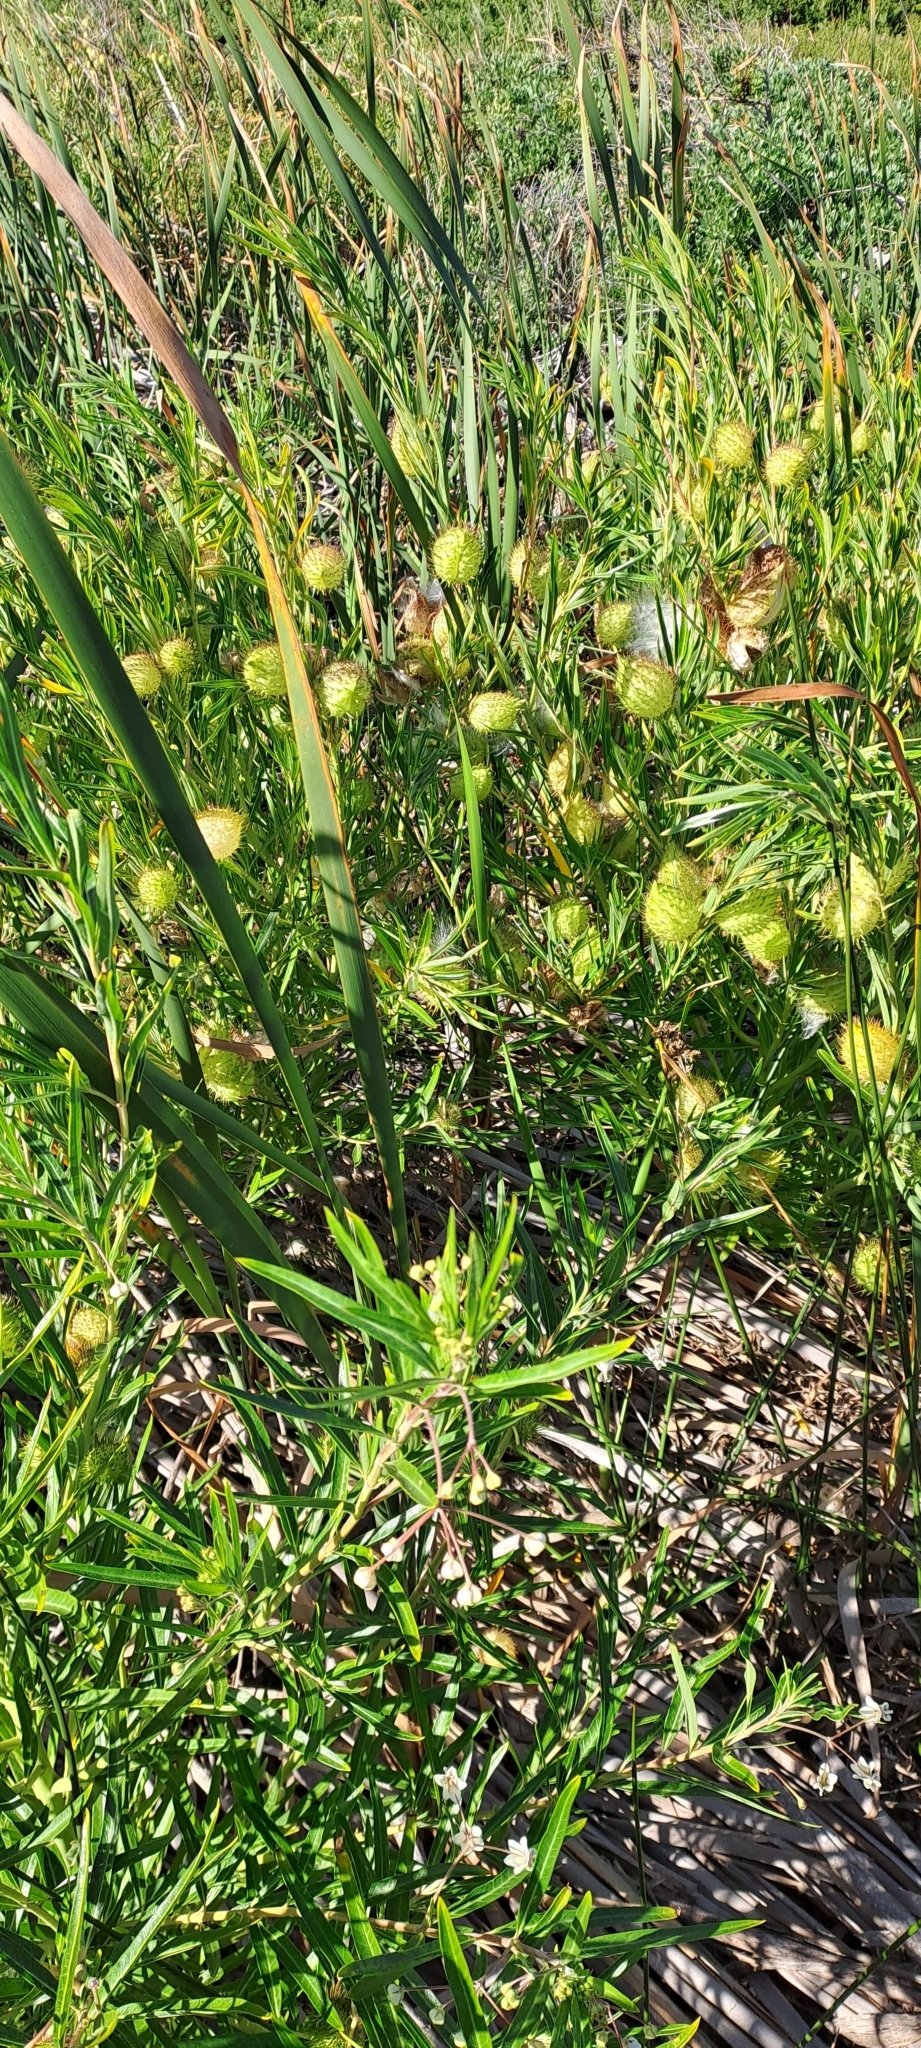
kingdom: Plantae
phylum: Tracheophyta
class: Magnoliopsida
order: Gentianales
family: Apocynaceae
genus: Gomphocarpus
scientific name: Gomphocarpus fruticosus
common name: Milkweed
